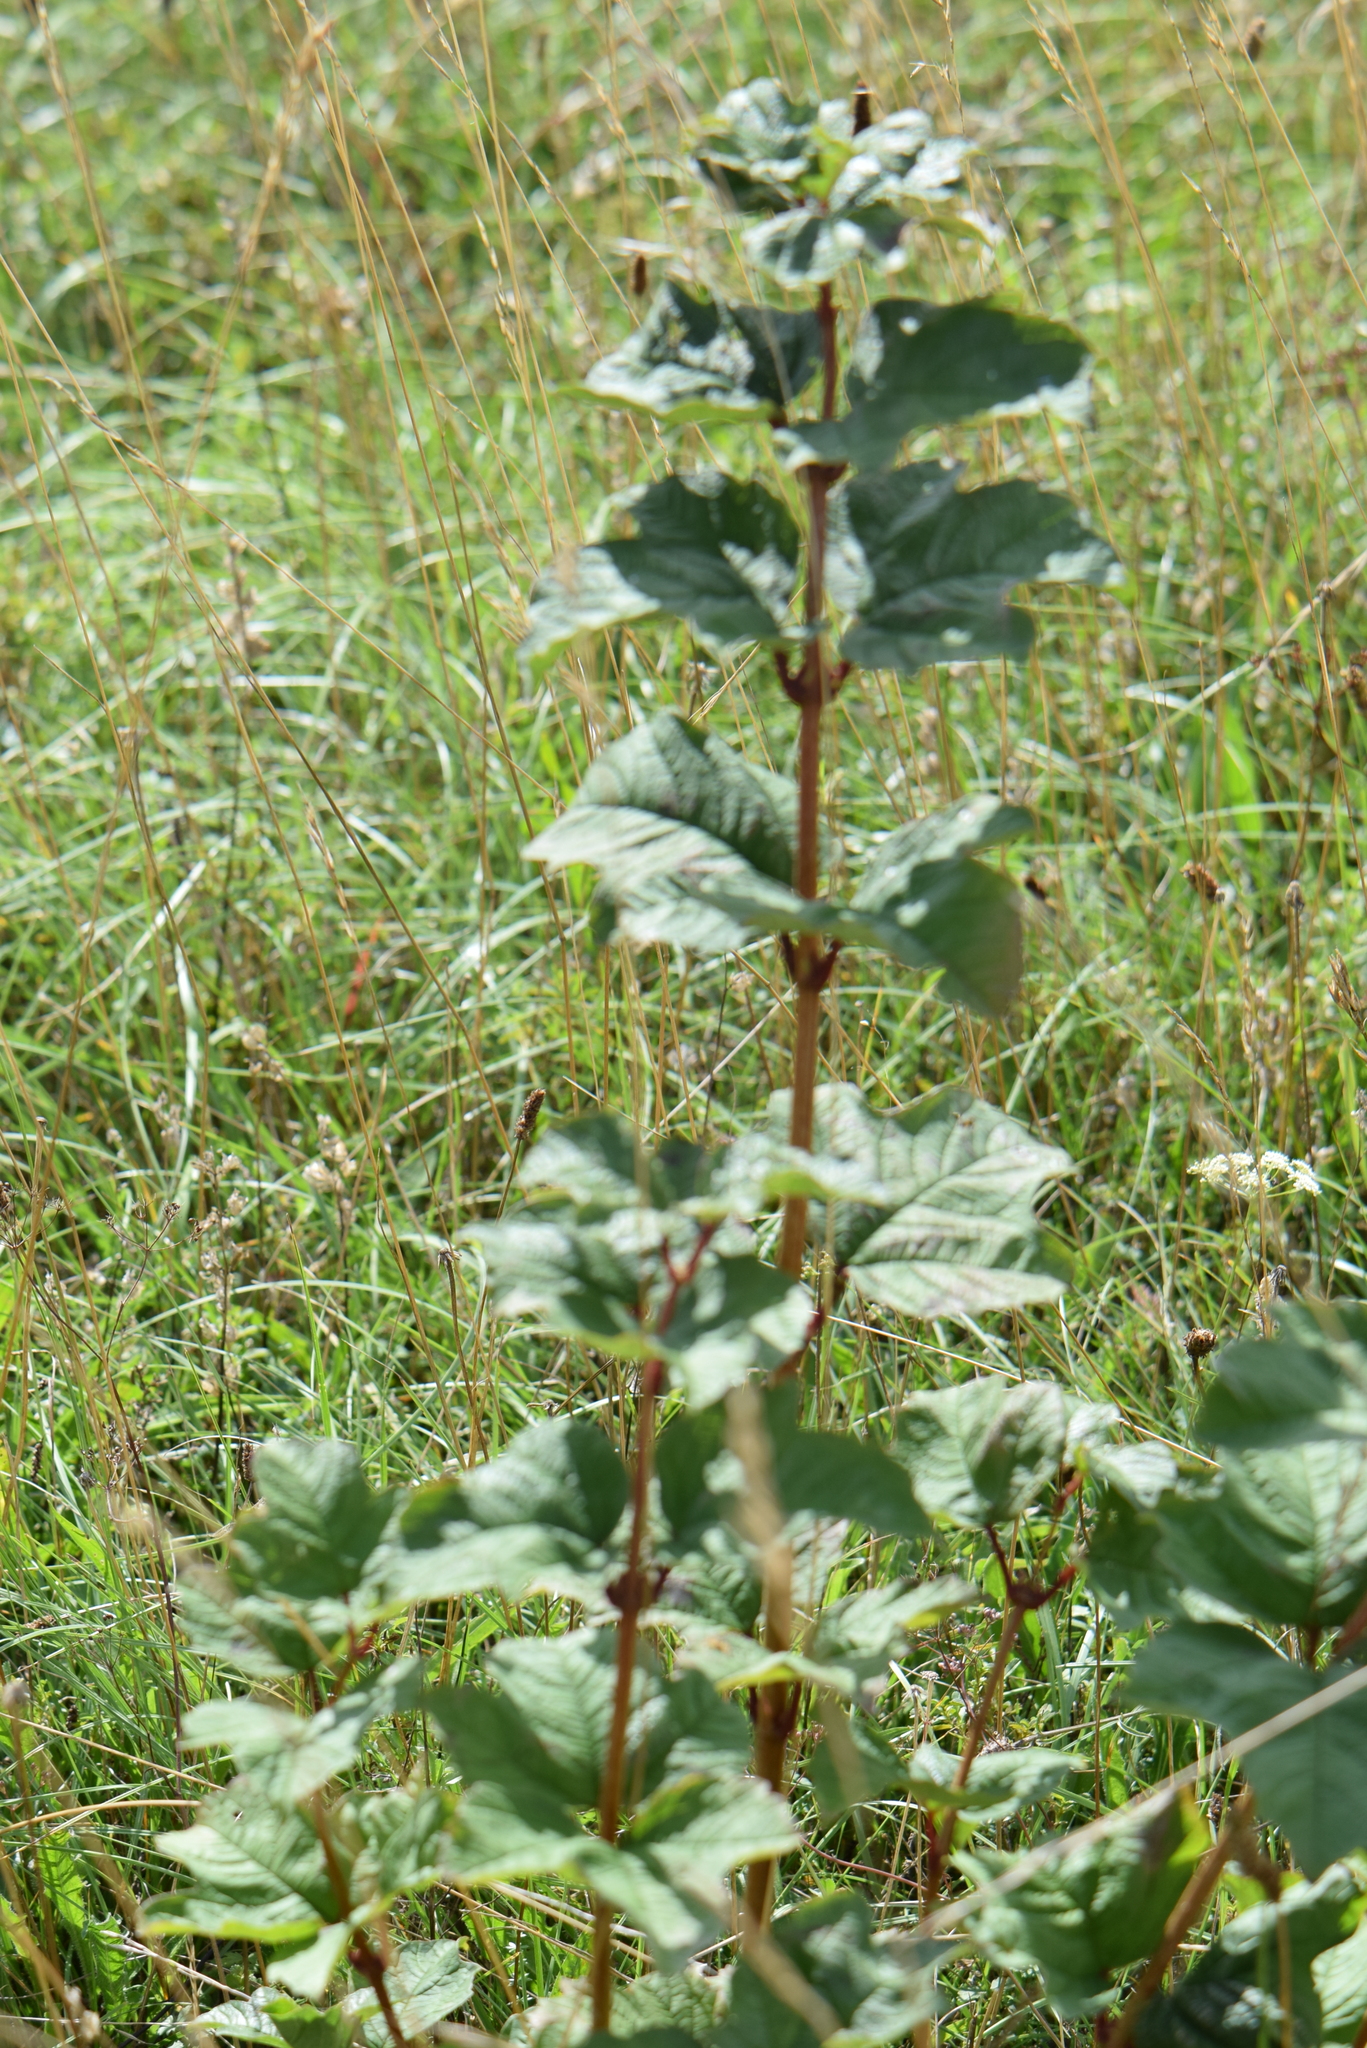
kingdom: Plantae
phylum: Tracheophyta
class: Magnoliopsida
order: Dipsacales
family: Viburnaceae
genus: Viburnum
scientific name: Viburnum opulus
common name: Guelder-rose
